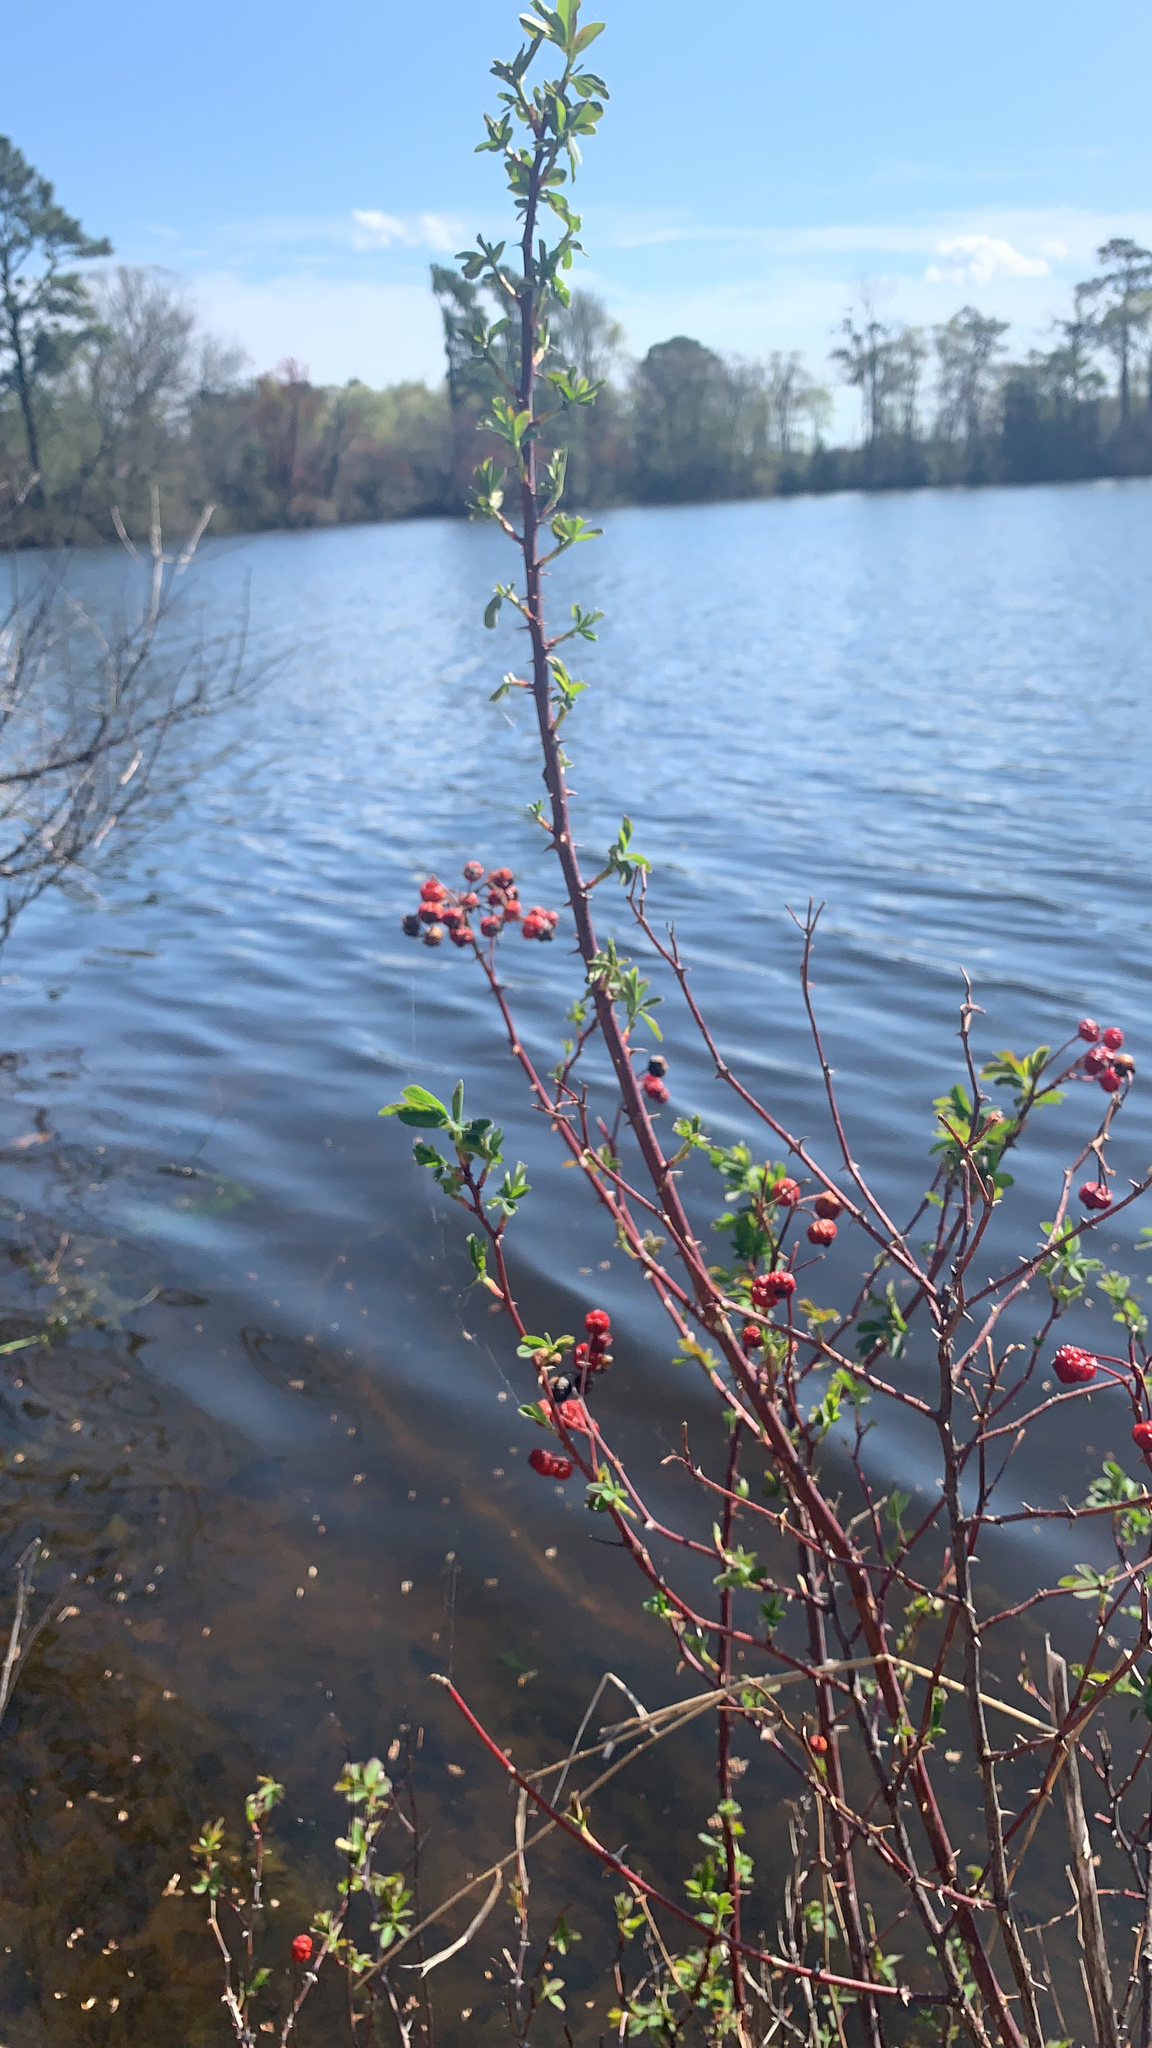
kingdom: Plantae
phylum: Tracheophyta
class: Magnoliopsida
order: Rosales
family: Rosaceae
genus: Rosa
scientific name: Rosa palustris
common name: Swamp rose
